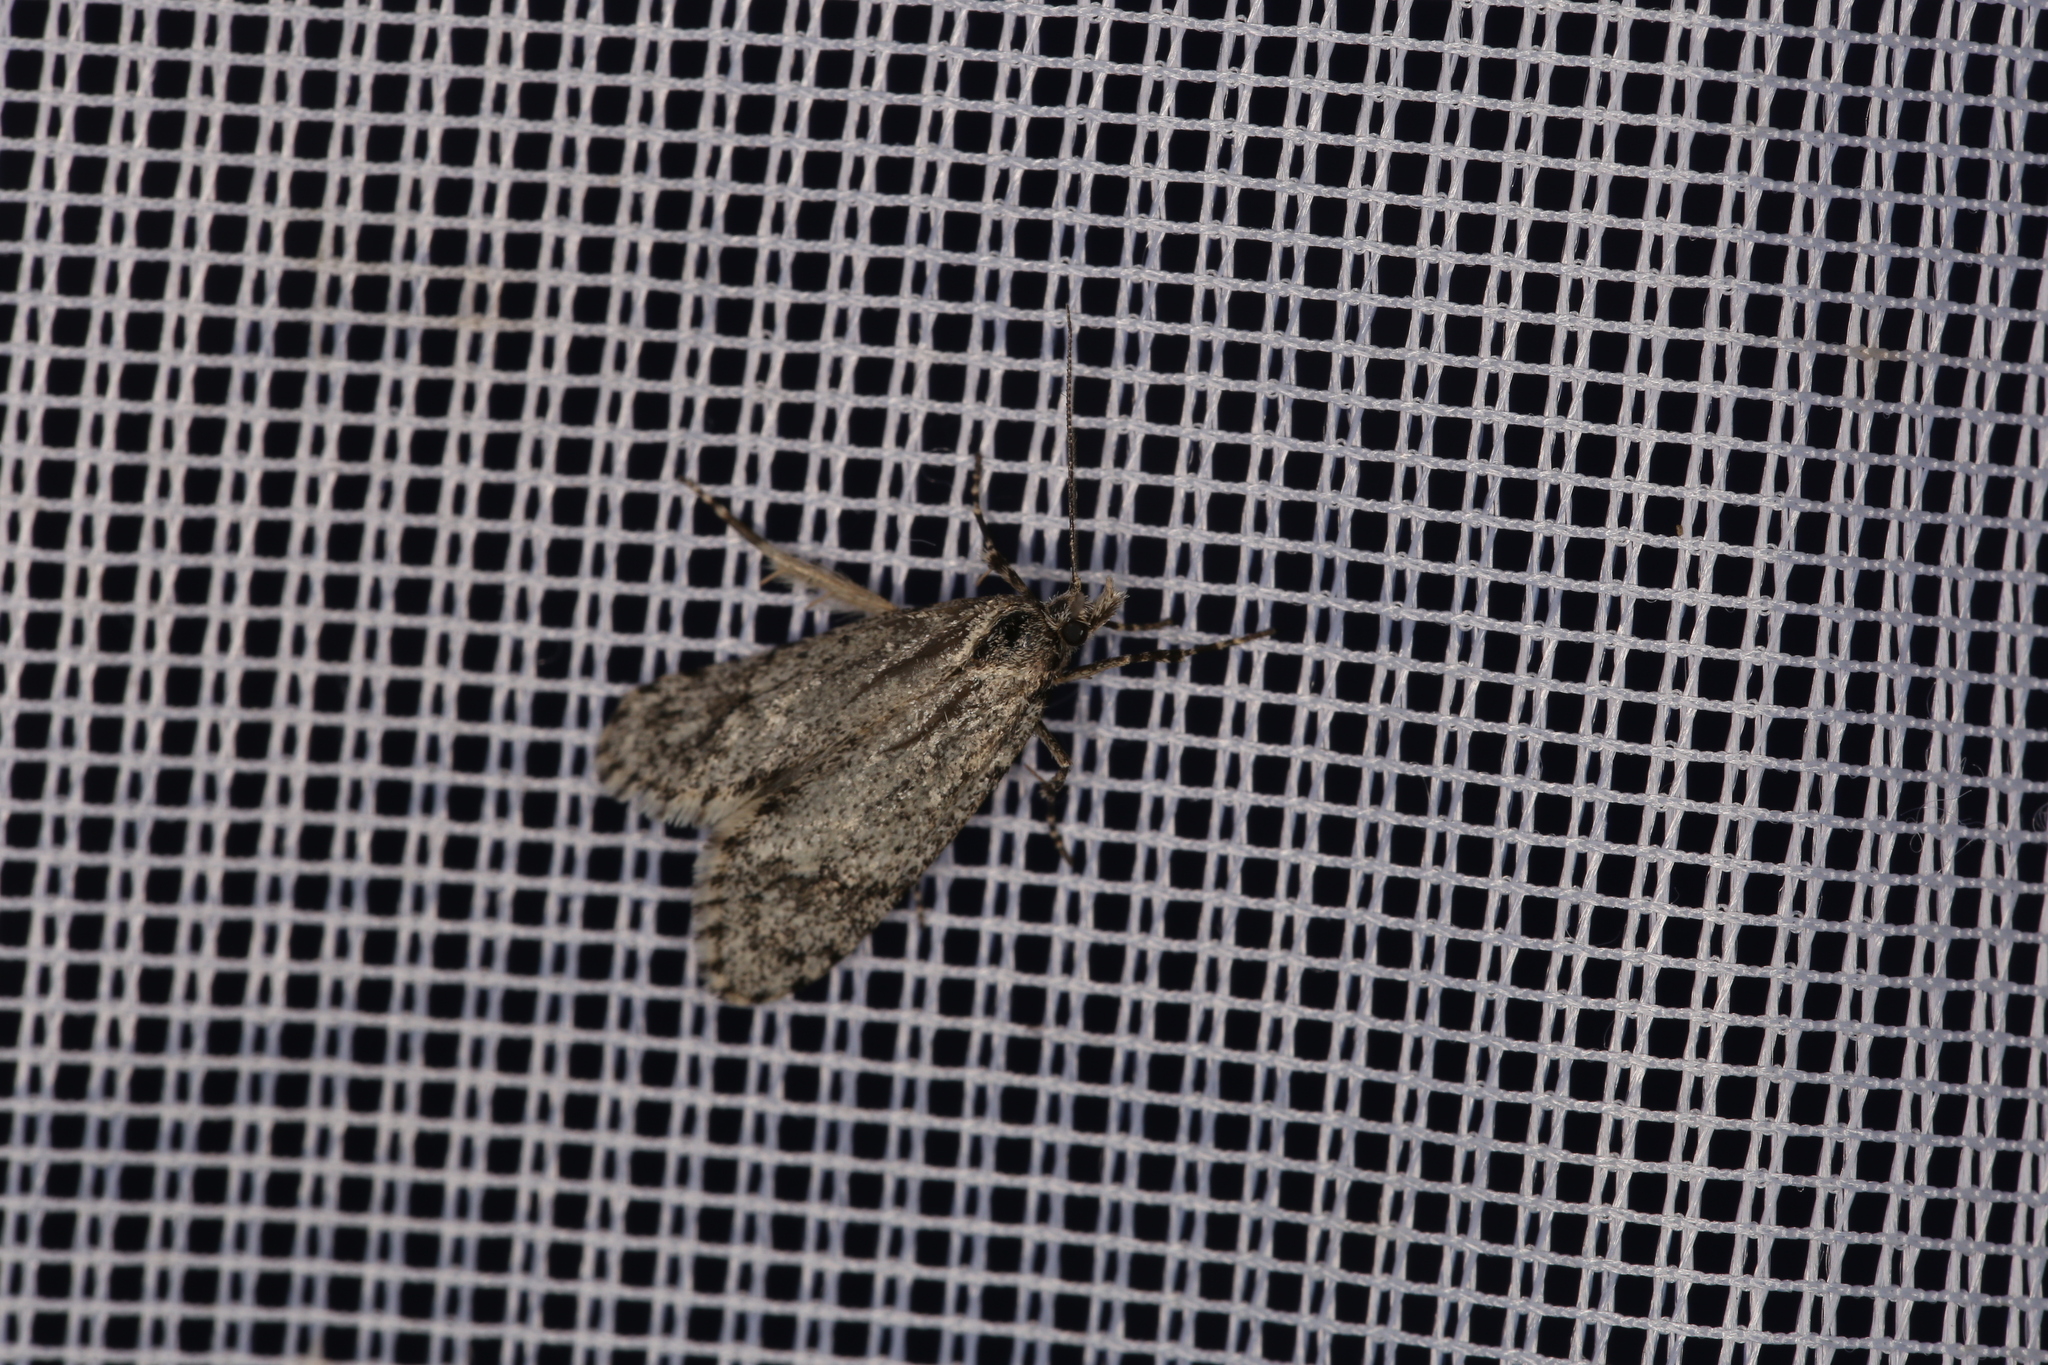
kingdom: Animalia
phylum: Arthropoda
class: Insecta
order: Lepidoptera
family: Lypusidae
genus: Diurnea
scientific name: Diurnea fagella
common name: March tubic
